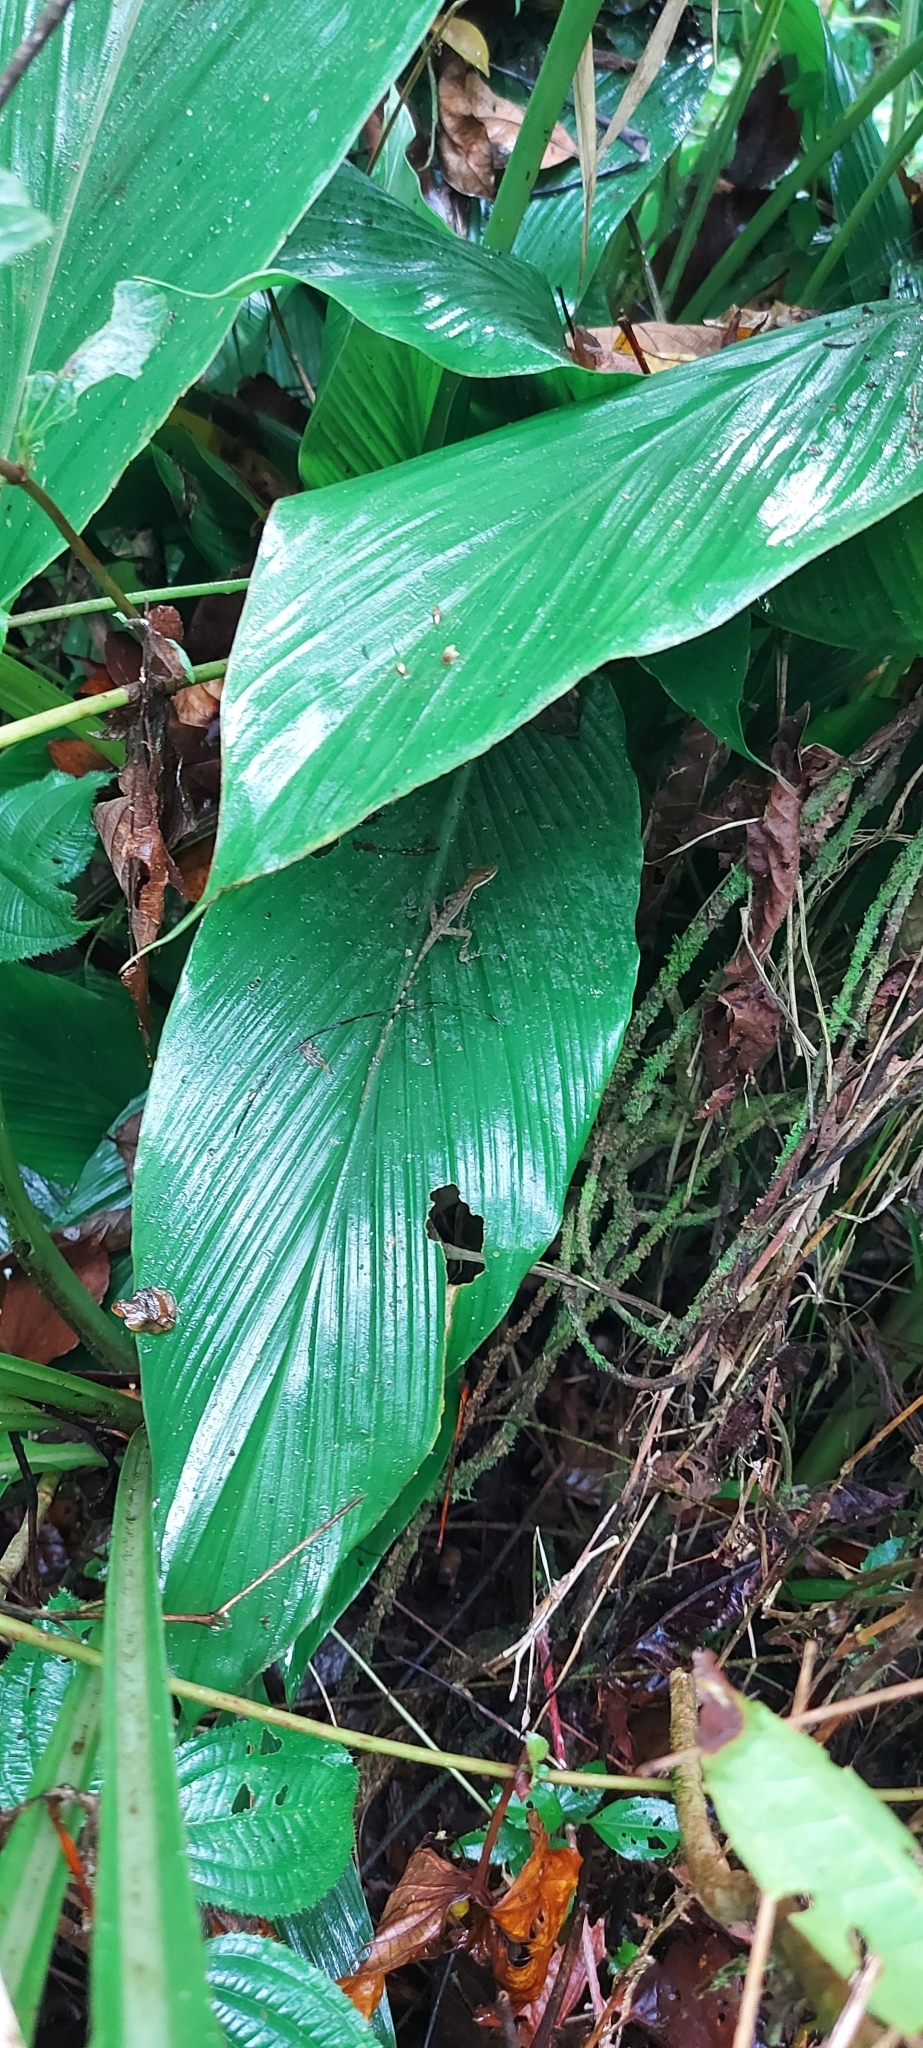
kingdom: Animalia
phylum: Chordata
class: Squamata
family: Dactyloidae
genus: Anolis
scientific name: Anolis limifrons
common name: Border anole
